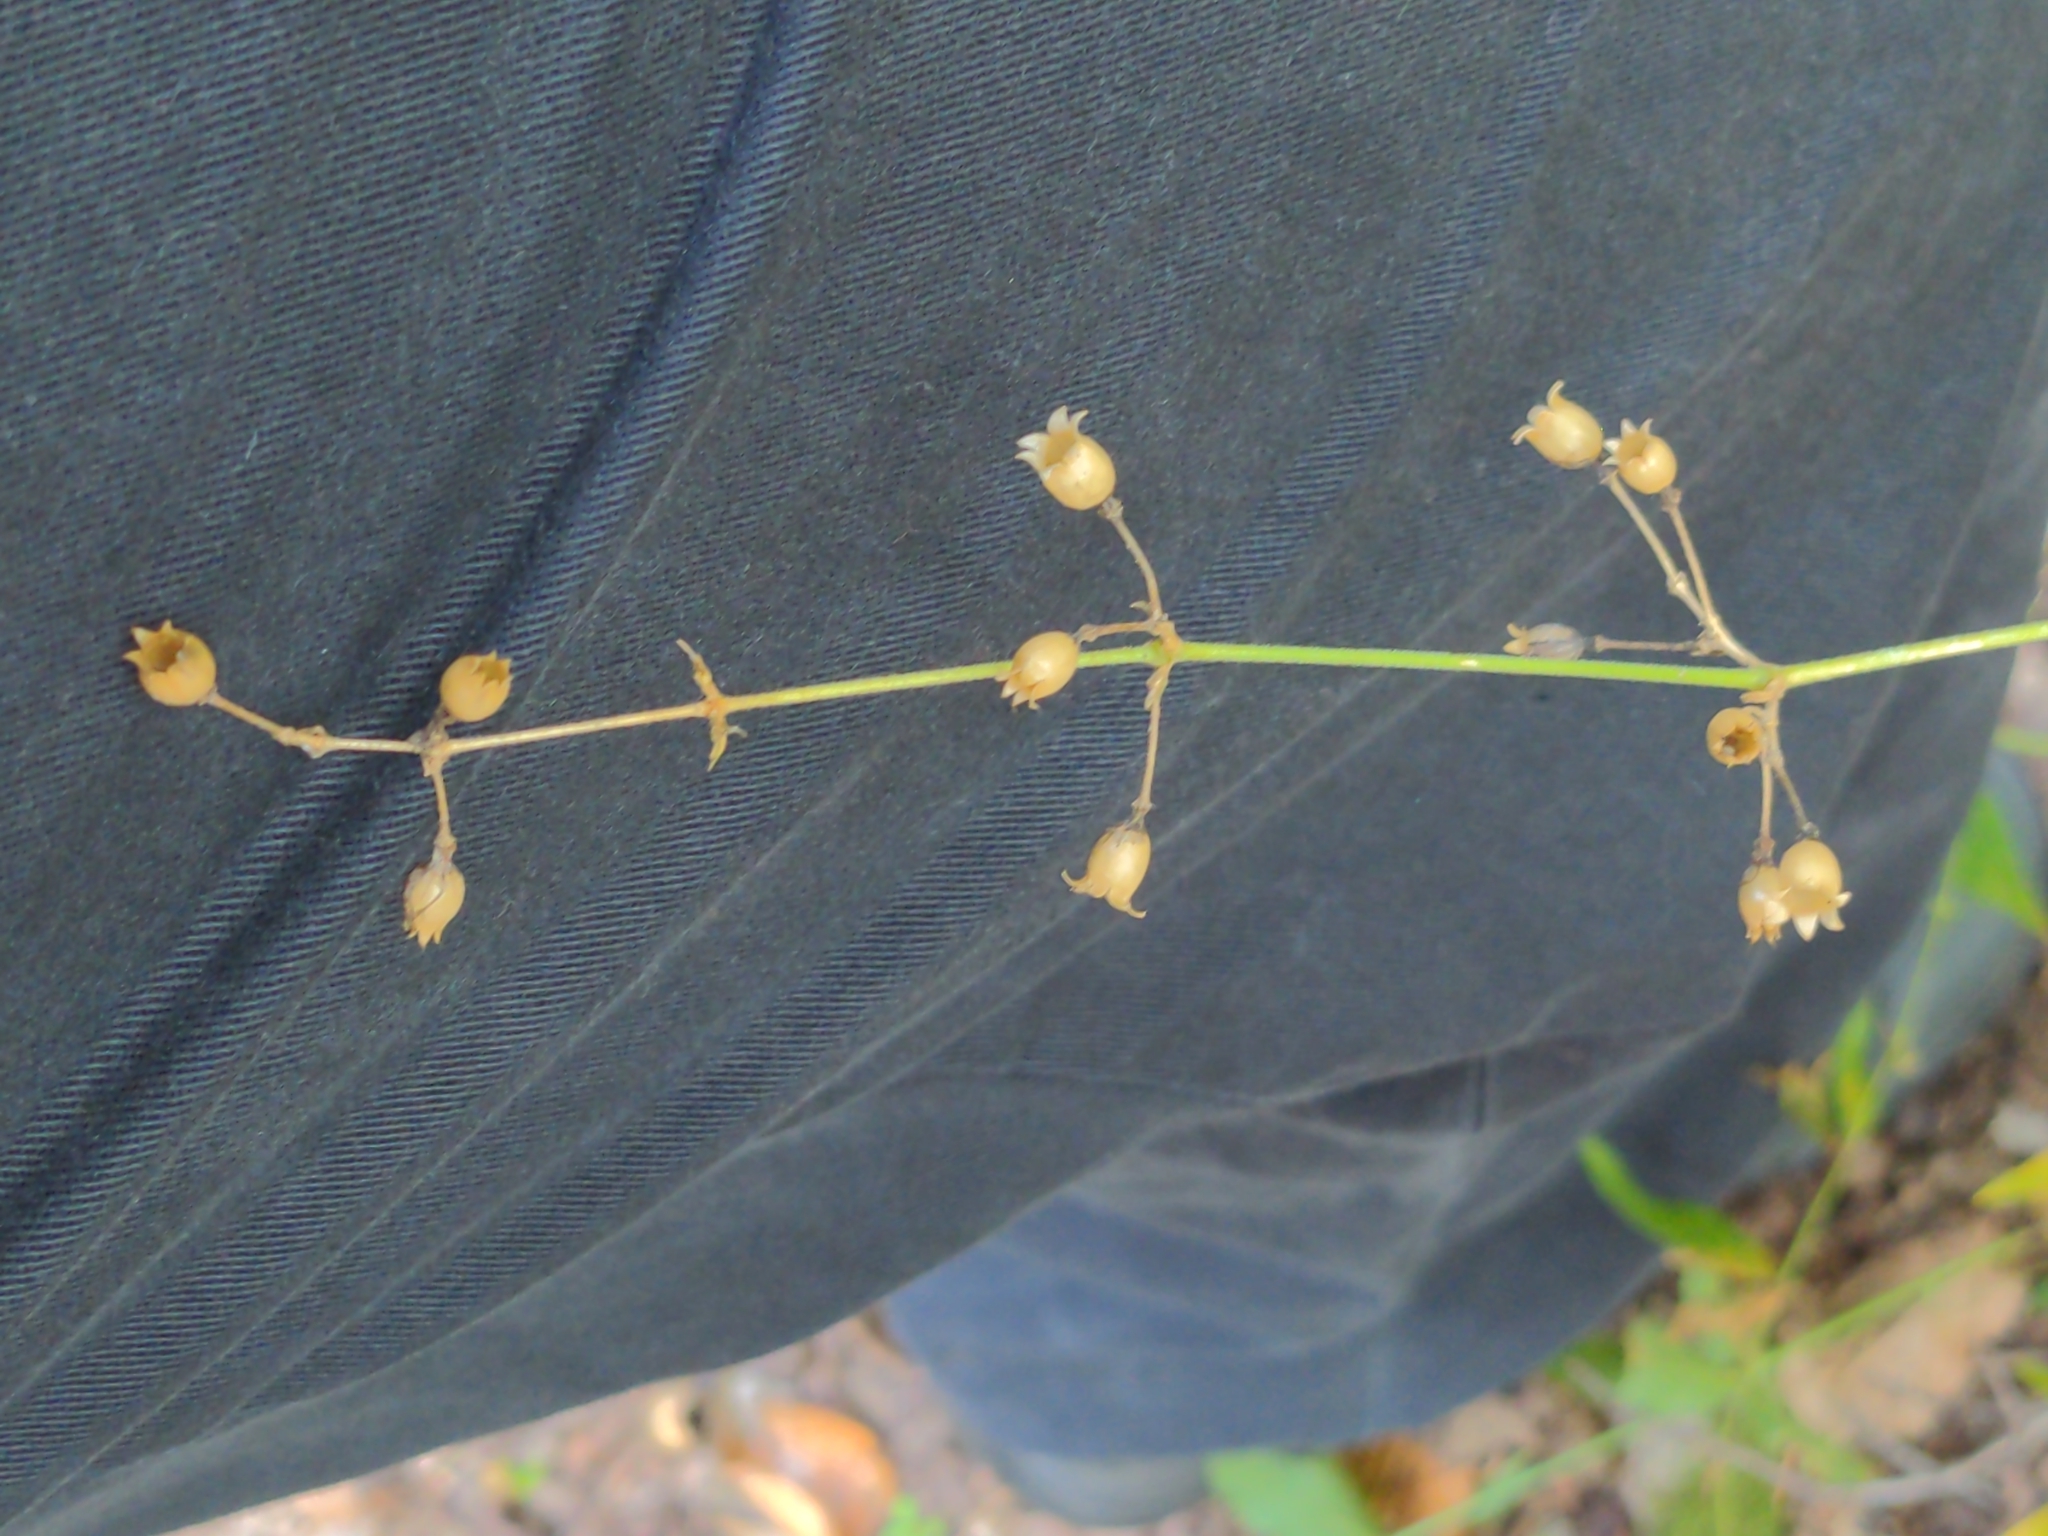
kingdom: Plantae
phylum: Tracheophyta
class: Magnoliopsida
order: Caryophyllales
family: Caryophyllaceae
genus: Silene
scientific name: Silene stellata
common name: Starry campion
